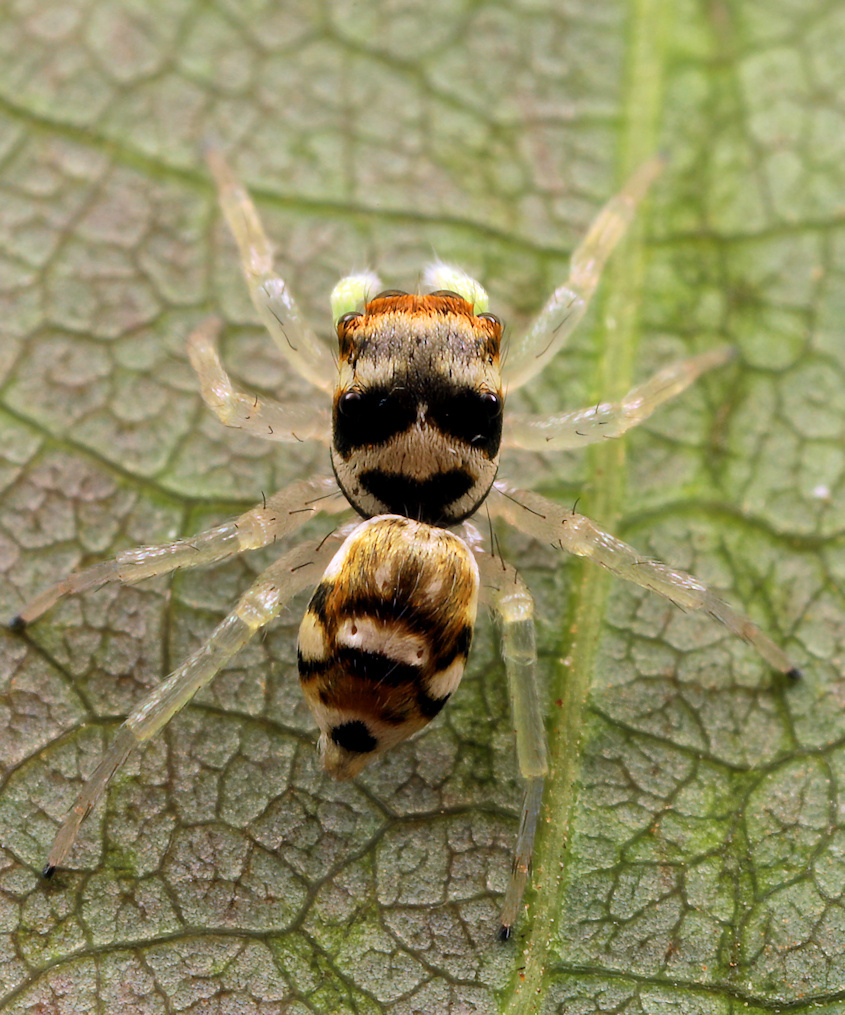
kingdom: Animalia
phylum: Arthropoda
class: Arachnida
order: Araneae
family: Salticidae
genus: Phintella
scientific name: Phintella aequipes
